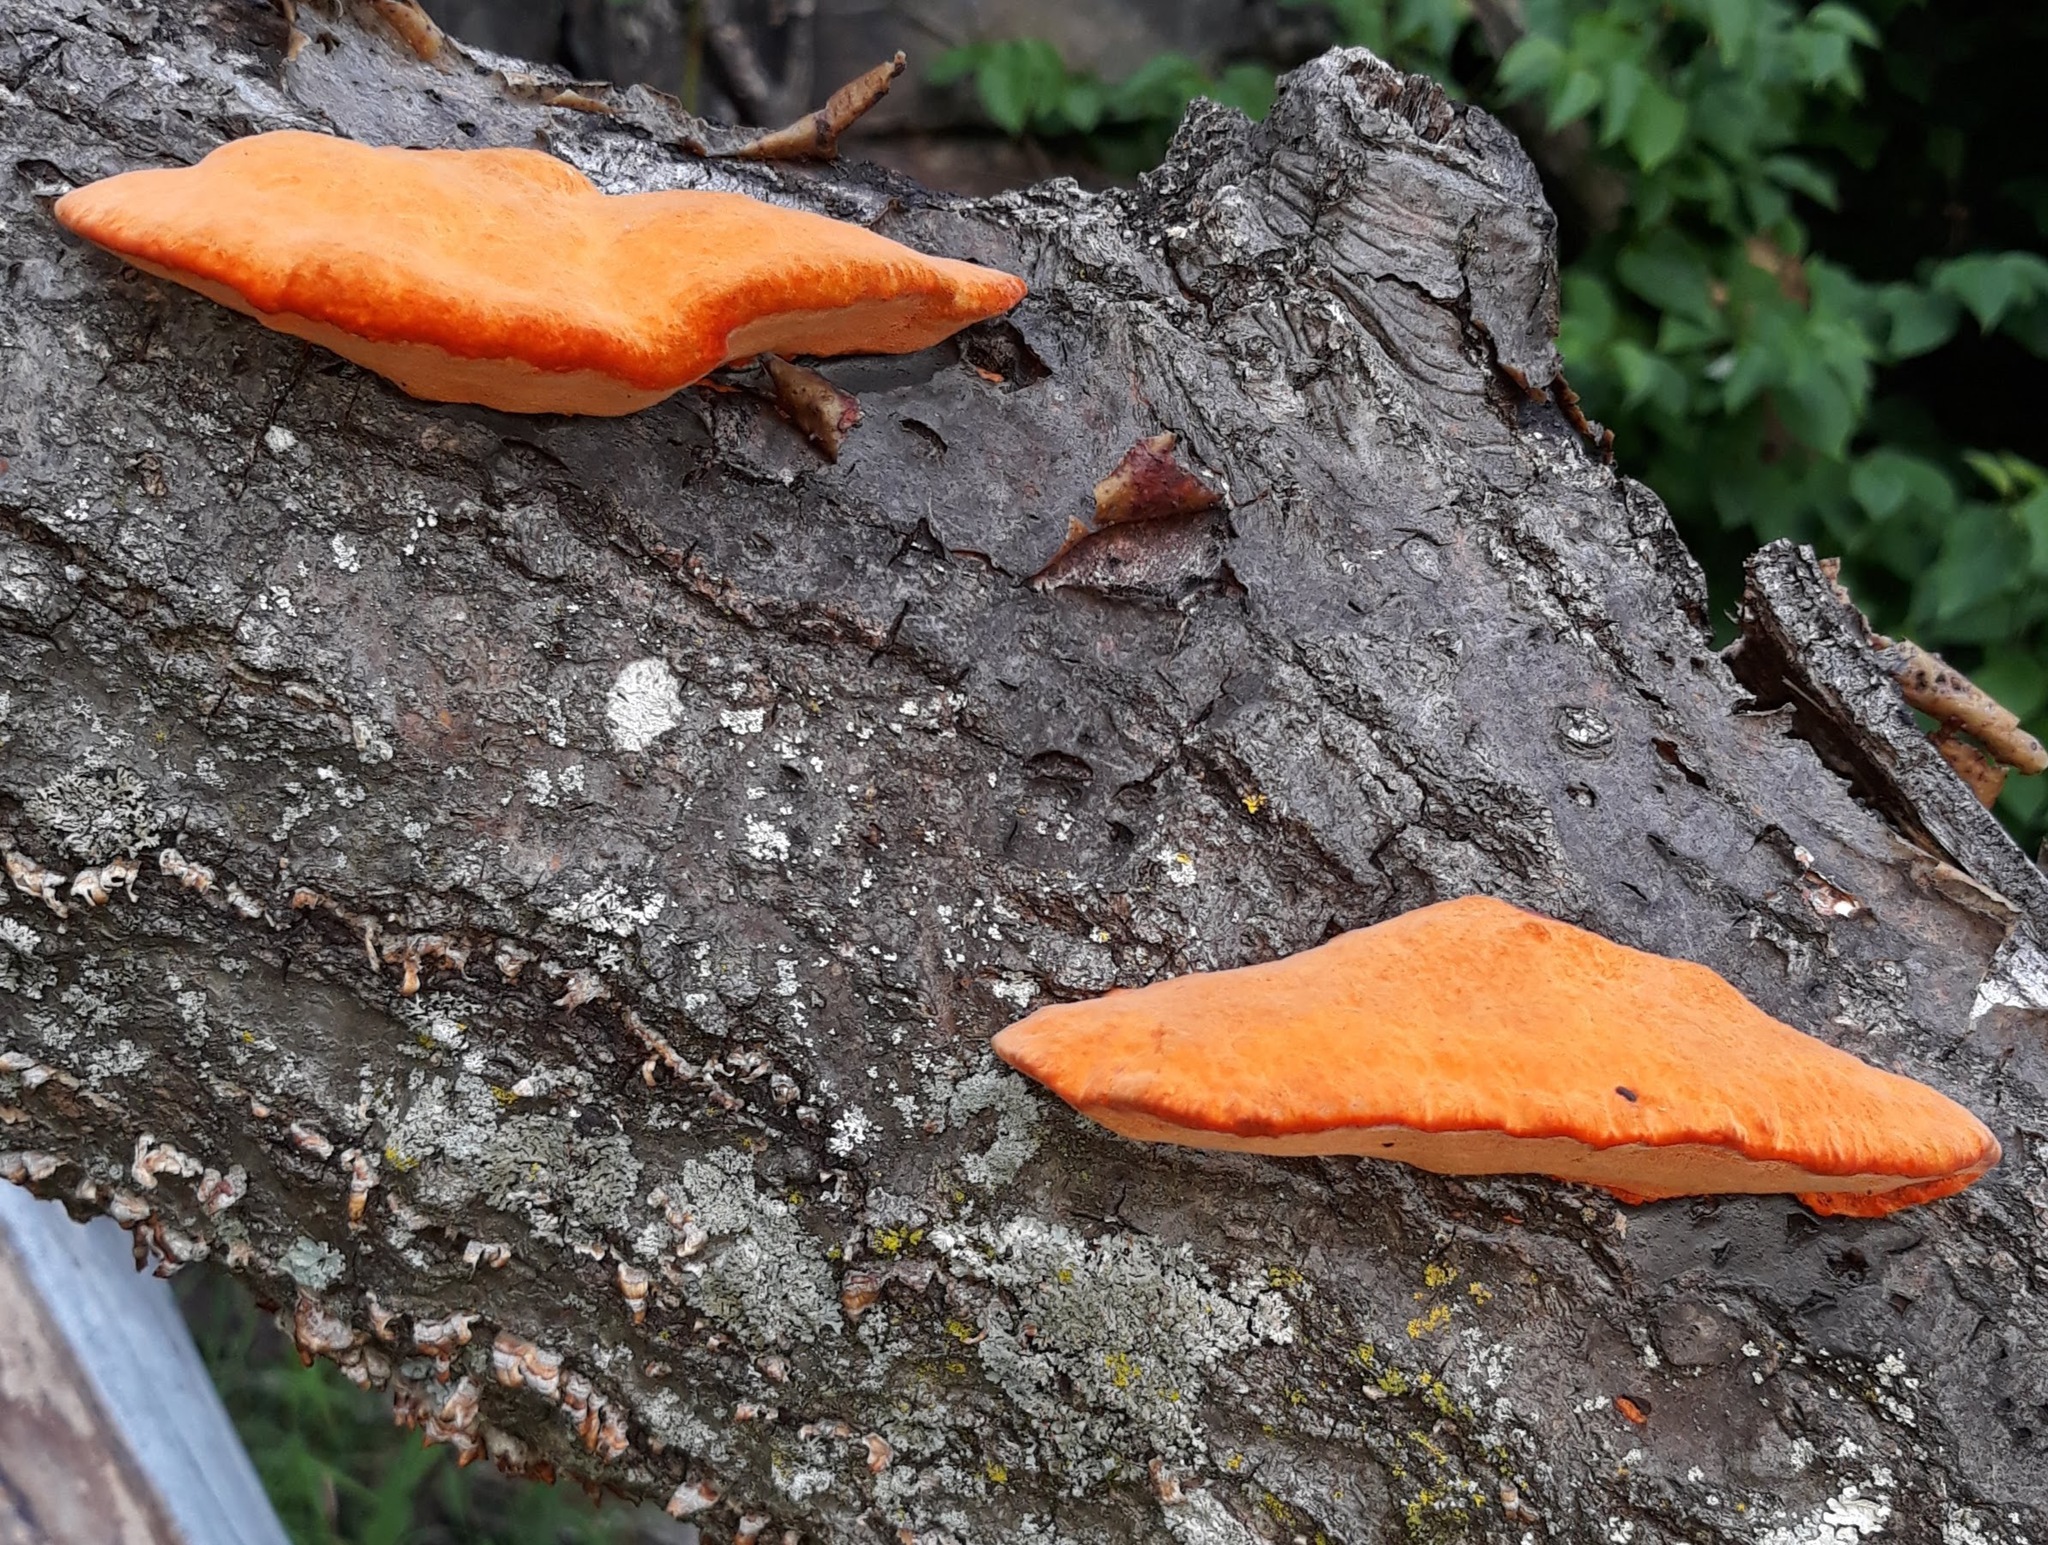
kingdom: Fungi
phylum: Basidiomycota
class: Agaricomycetes
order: Polyporales
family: Polyporaceae
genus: Trametes
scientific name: Trametes cinnabarina
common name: Northern cinnabar polypore
